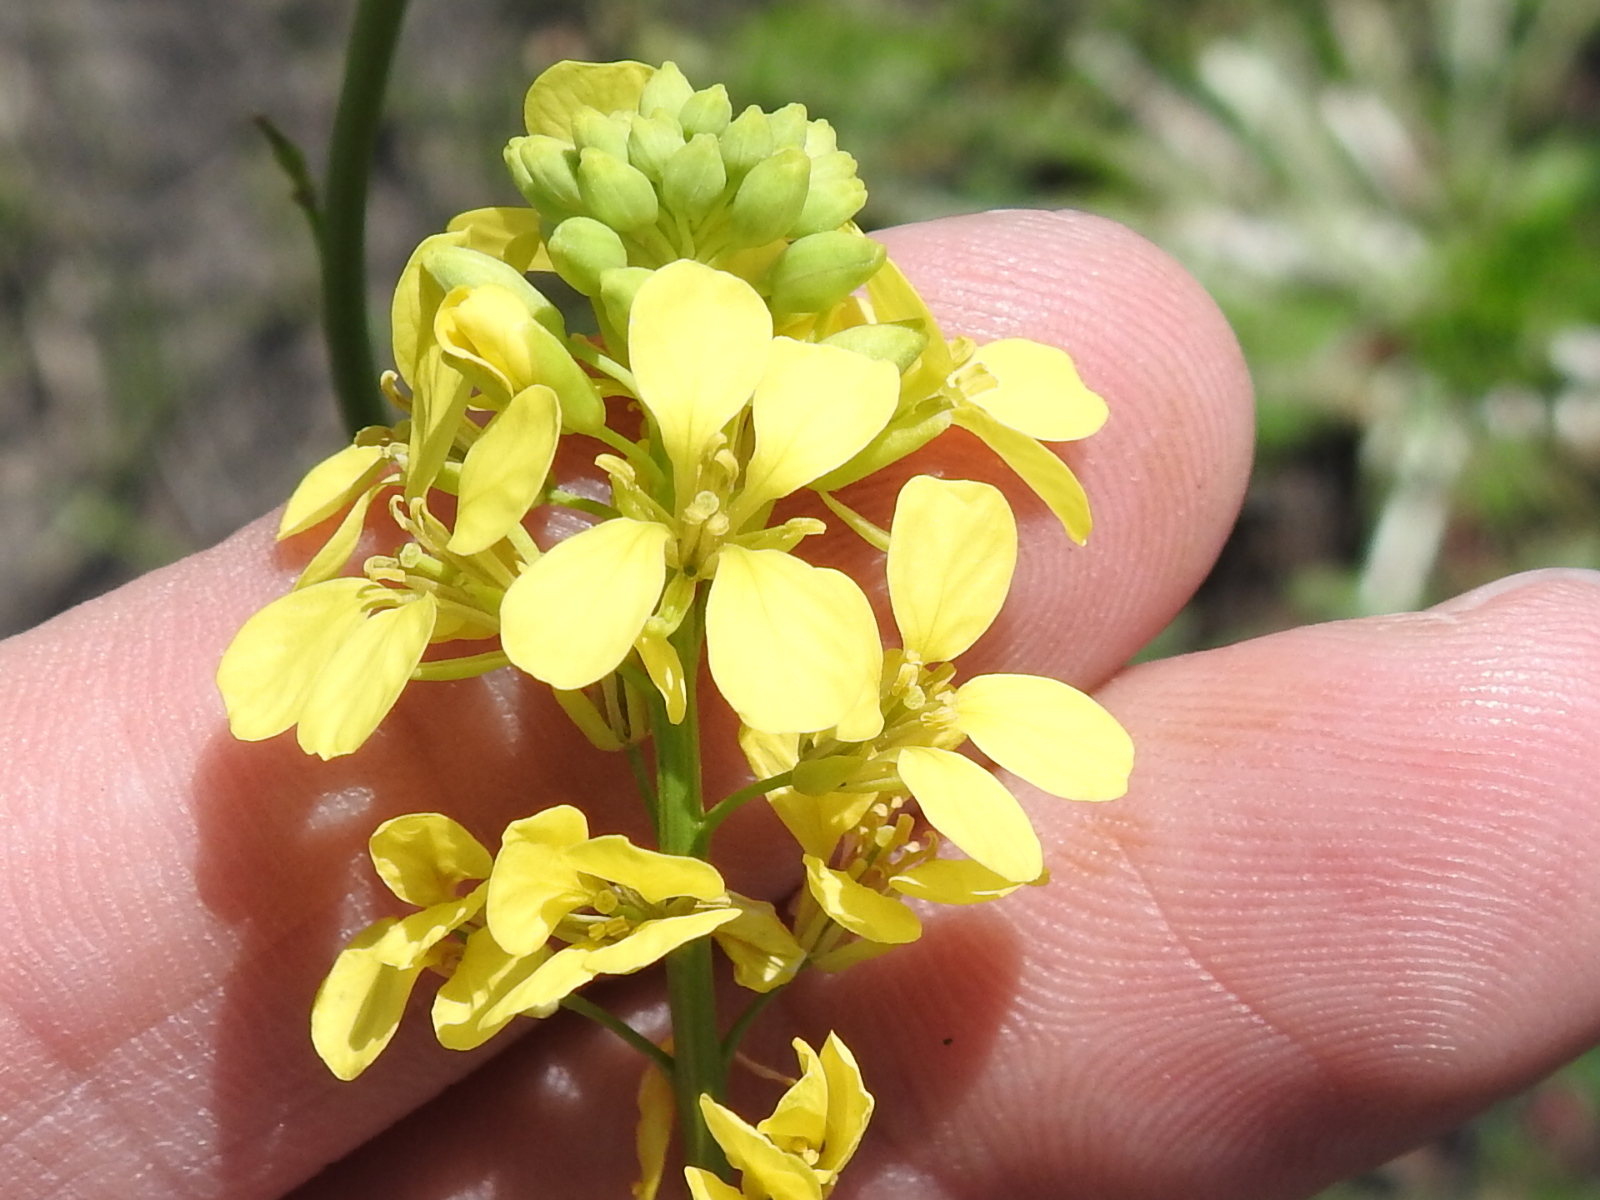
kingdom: Plantae
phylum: Tracheophyta
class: Magnoliopsida
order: Brassicales
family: Brassicaceae
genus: Rapistrum
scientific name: Rapistrum rugosum
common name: Annual bastardcabbage
